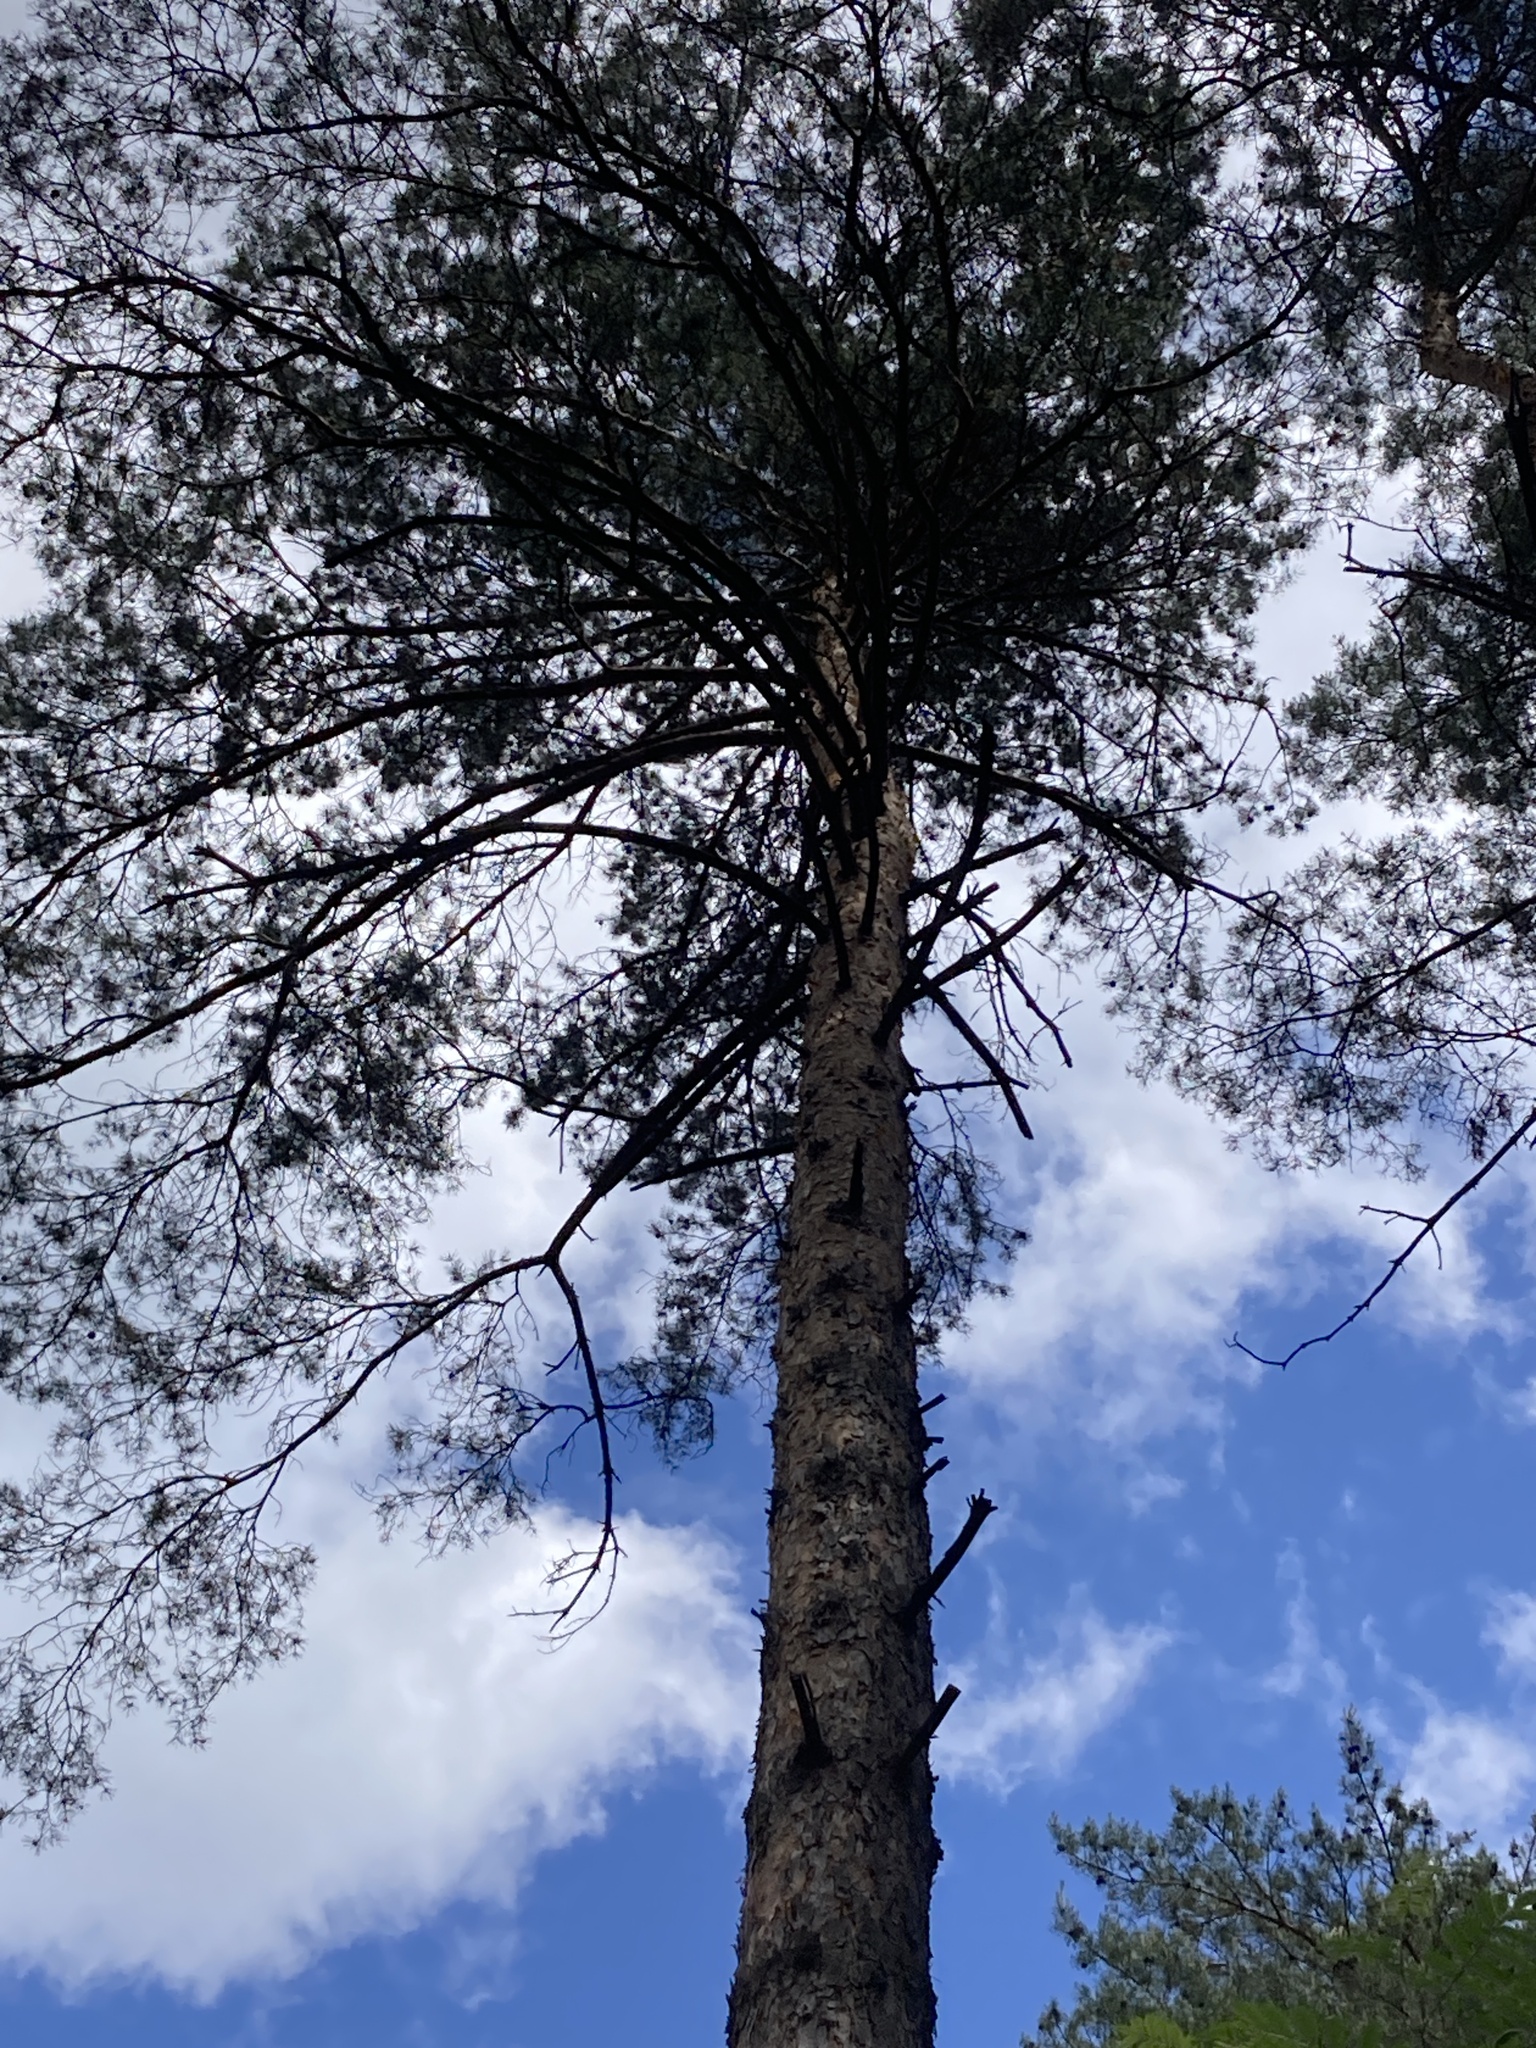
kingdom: Plantae
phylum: Tracheophyta
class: Pinopsida
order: Pinales
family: Pinaceae
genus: Pinus
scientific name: Pinus sylvestris
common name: Scots pine
